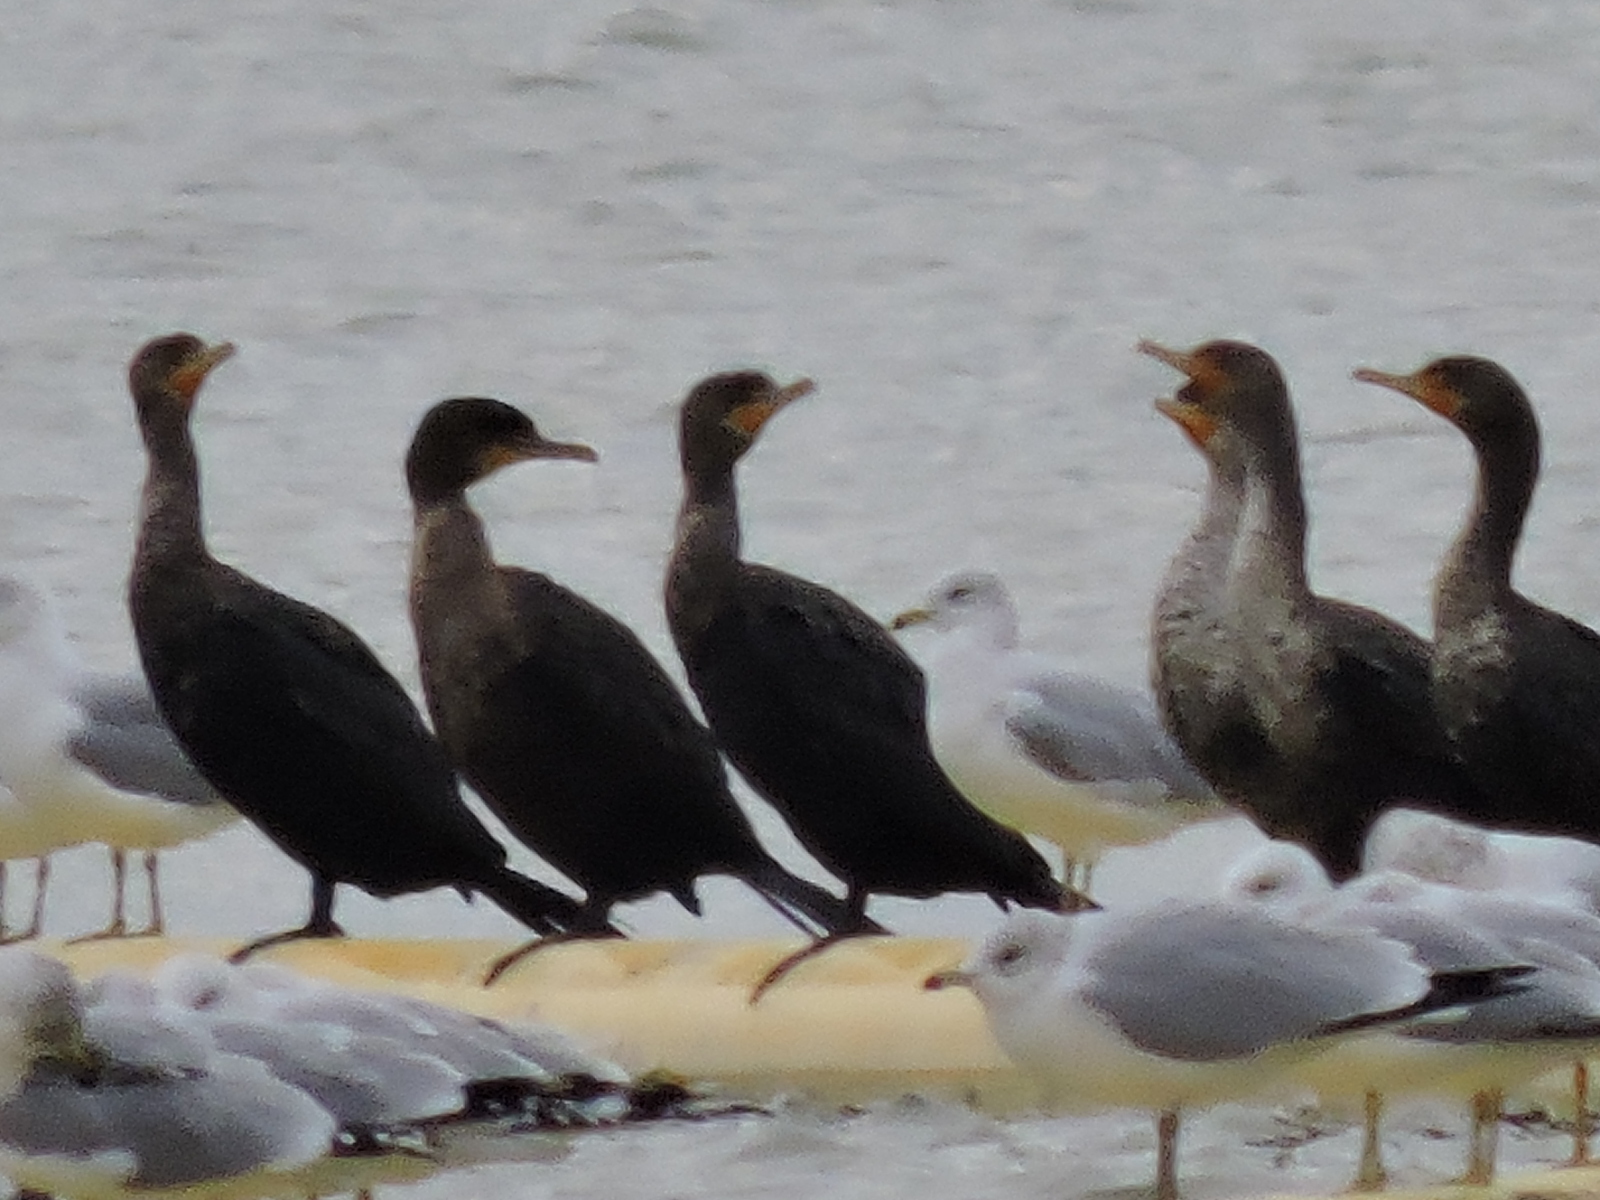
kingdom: Animalia
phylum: Chordata
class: Aves
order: Suliformes
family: Phalacrocoracidae
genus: Phalacrocorax
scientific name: Phalacrocorax auritus
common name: Double-crested cormorant
